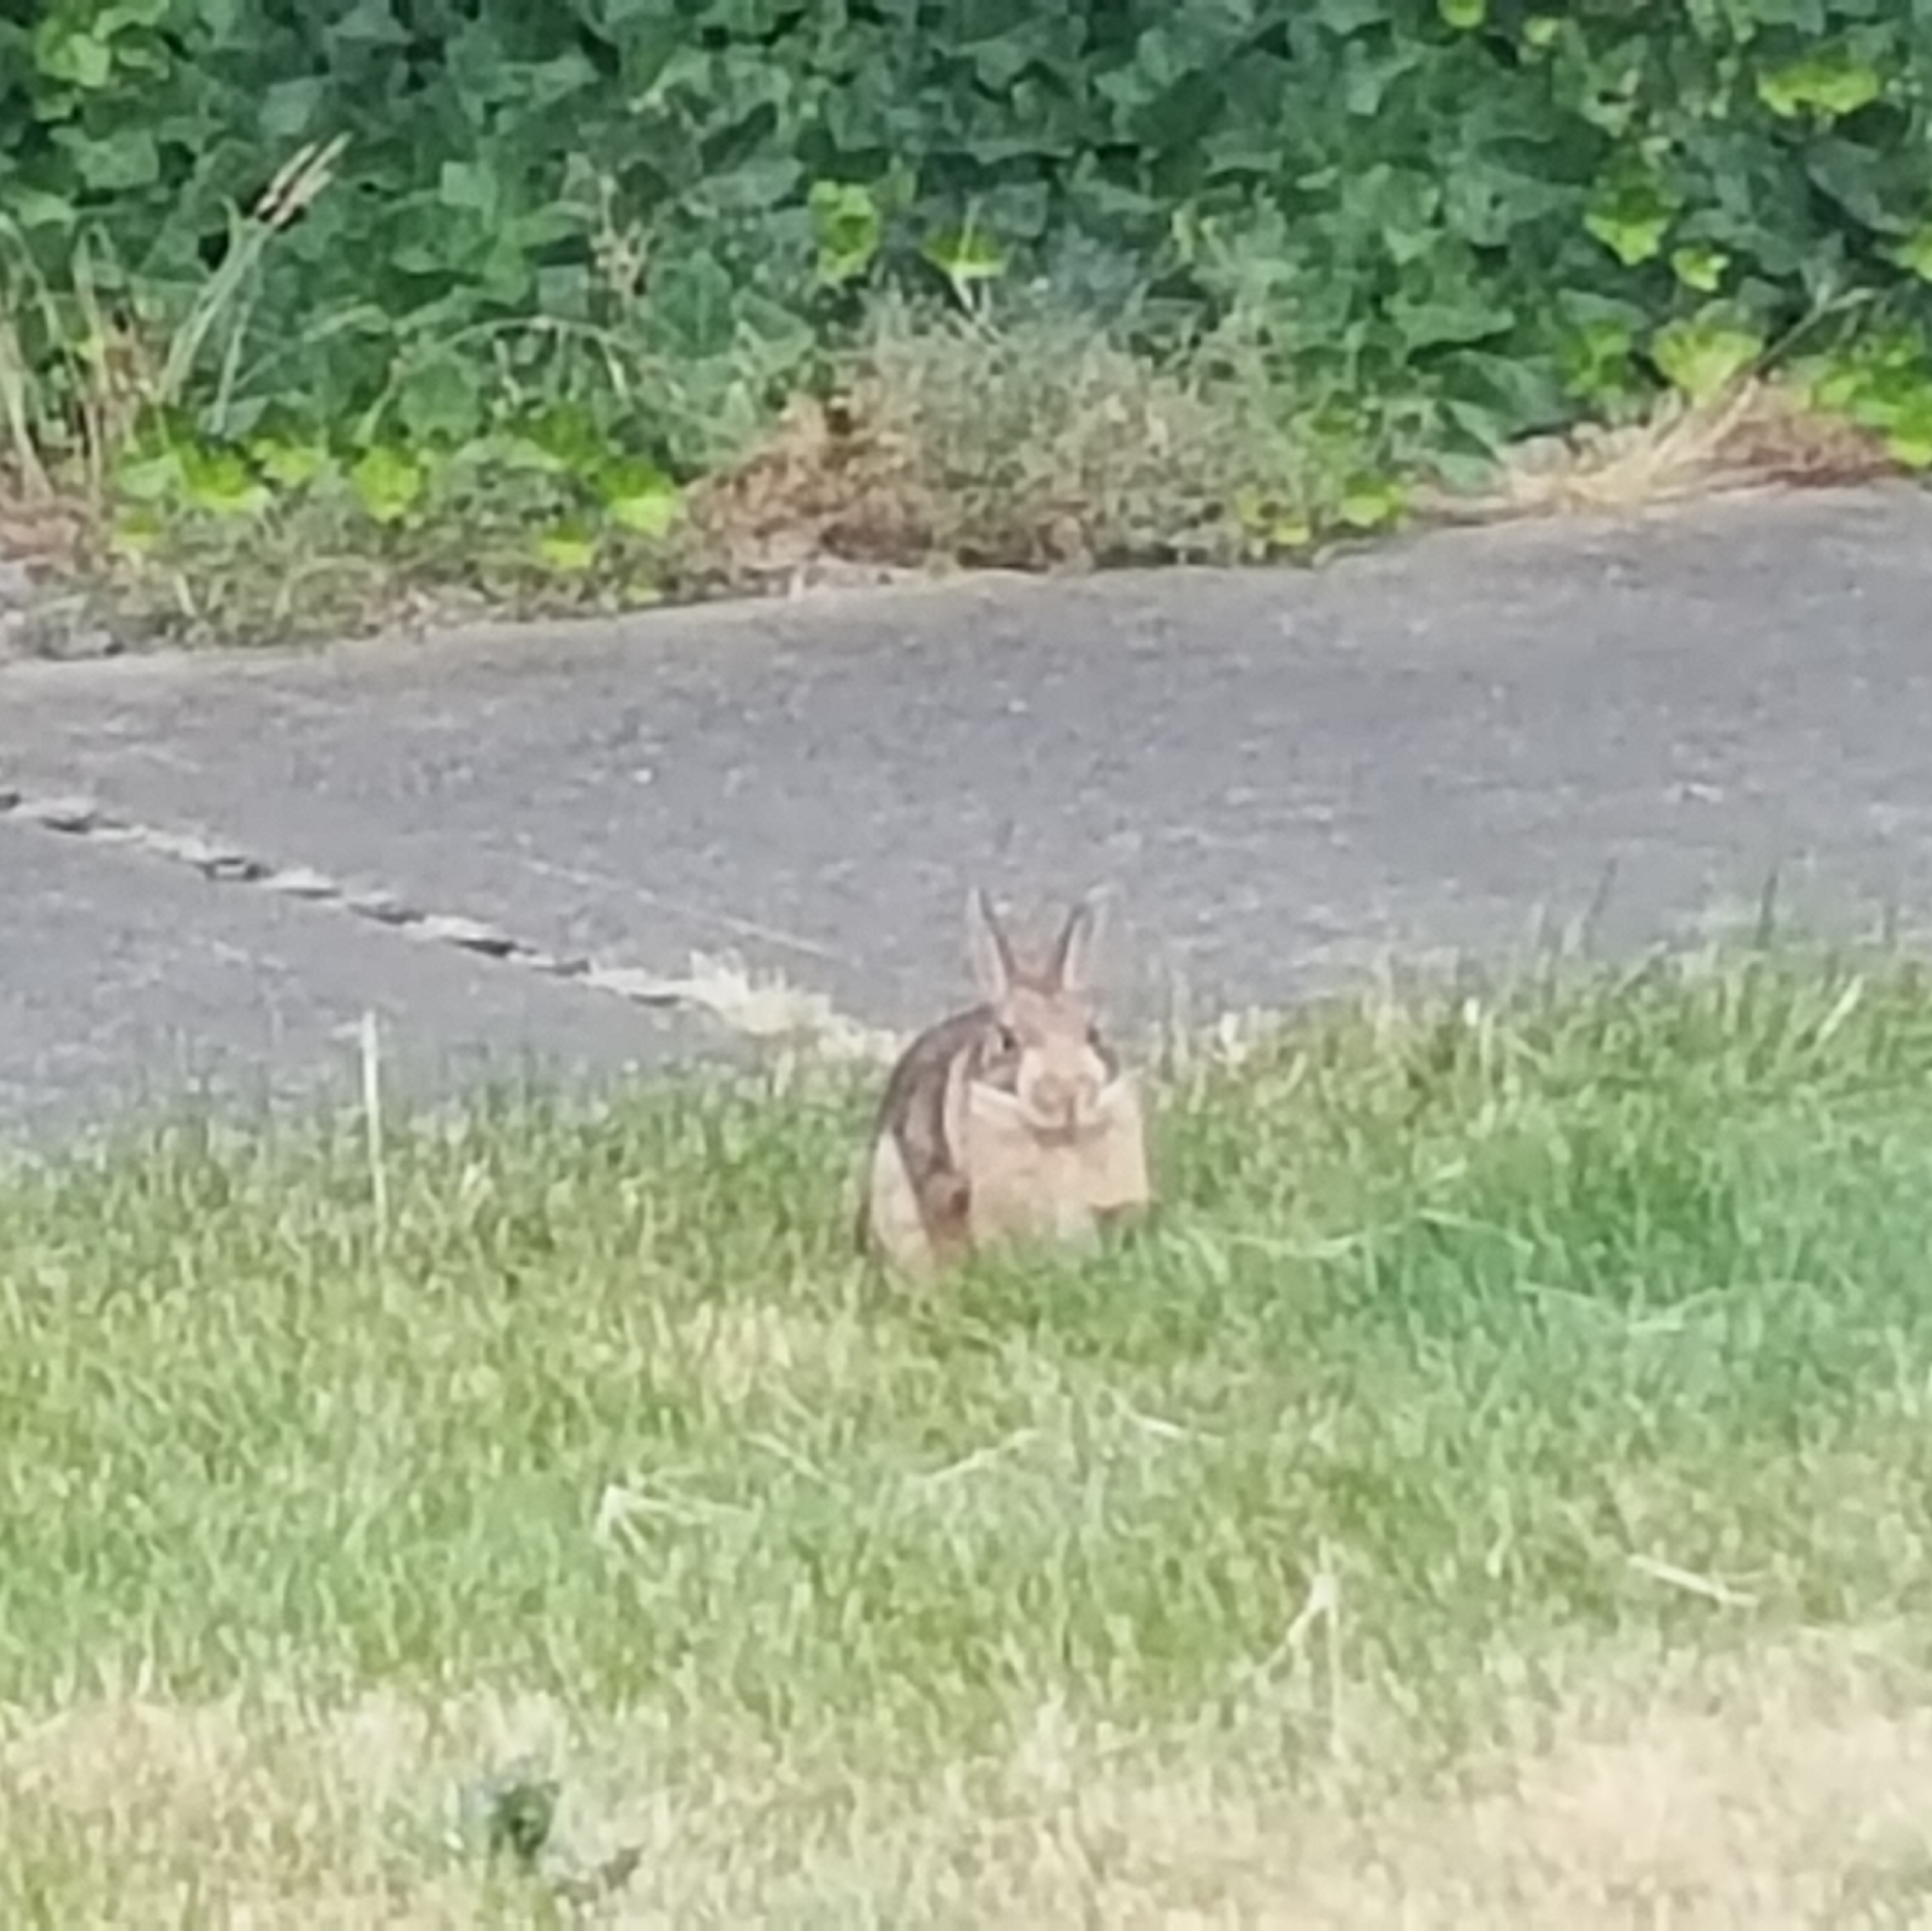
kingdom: Animalia
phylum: Chordata
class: Mammalia
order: Lagomorpha
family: Leporidae
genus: Sylvilagus
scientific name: Sylvilagus floridanus
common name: Eastern cottontail
